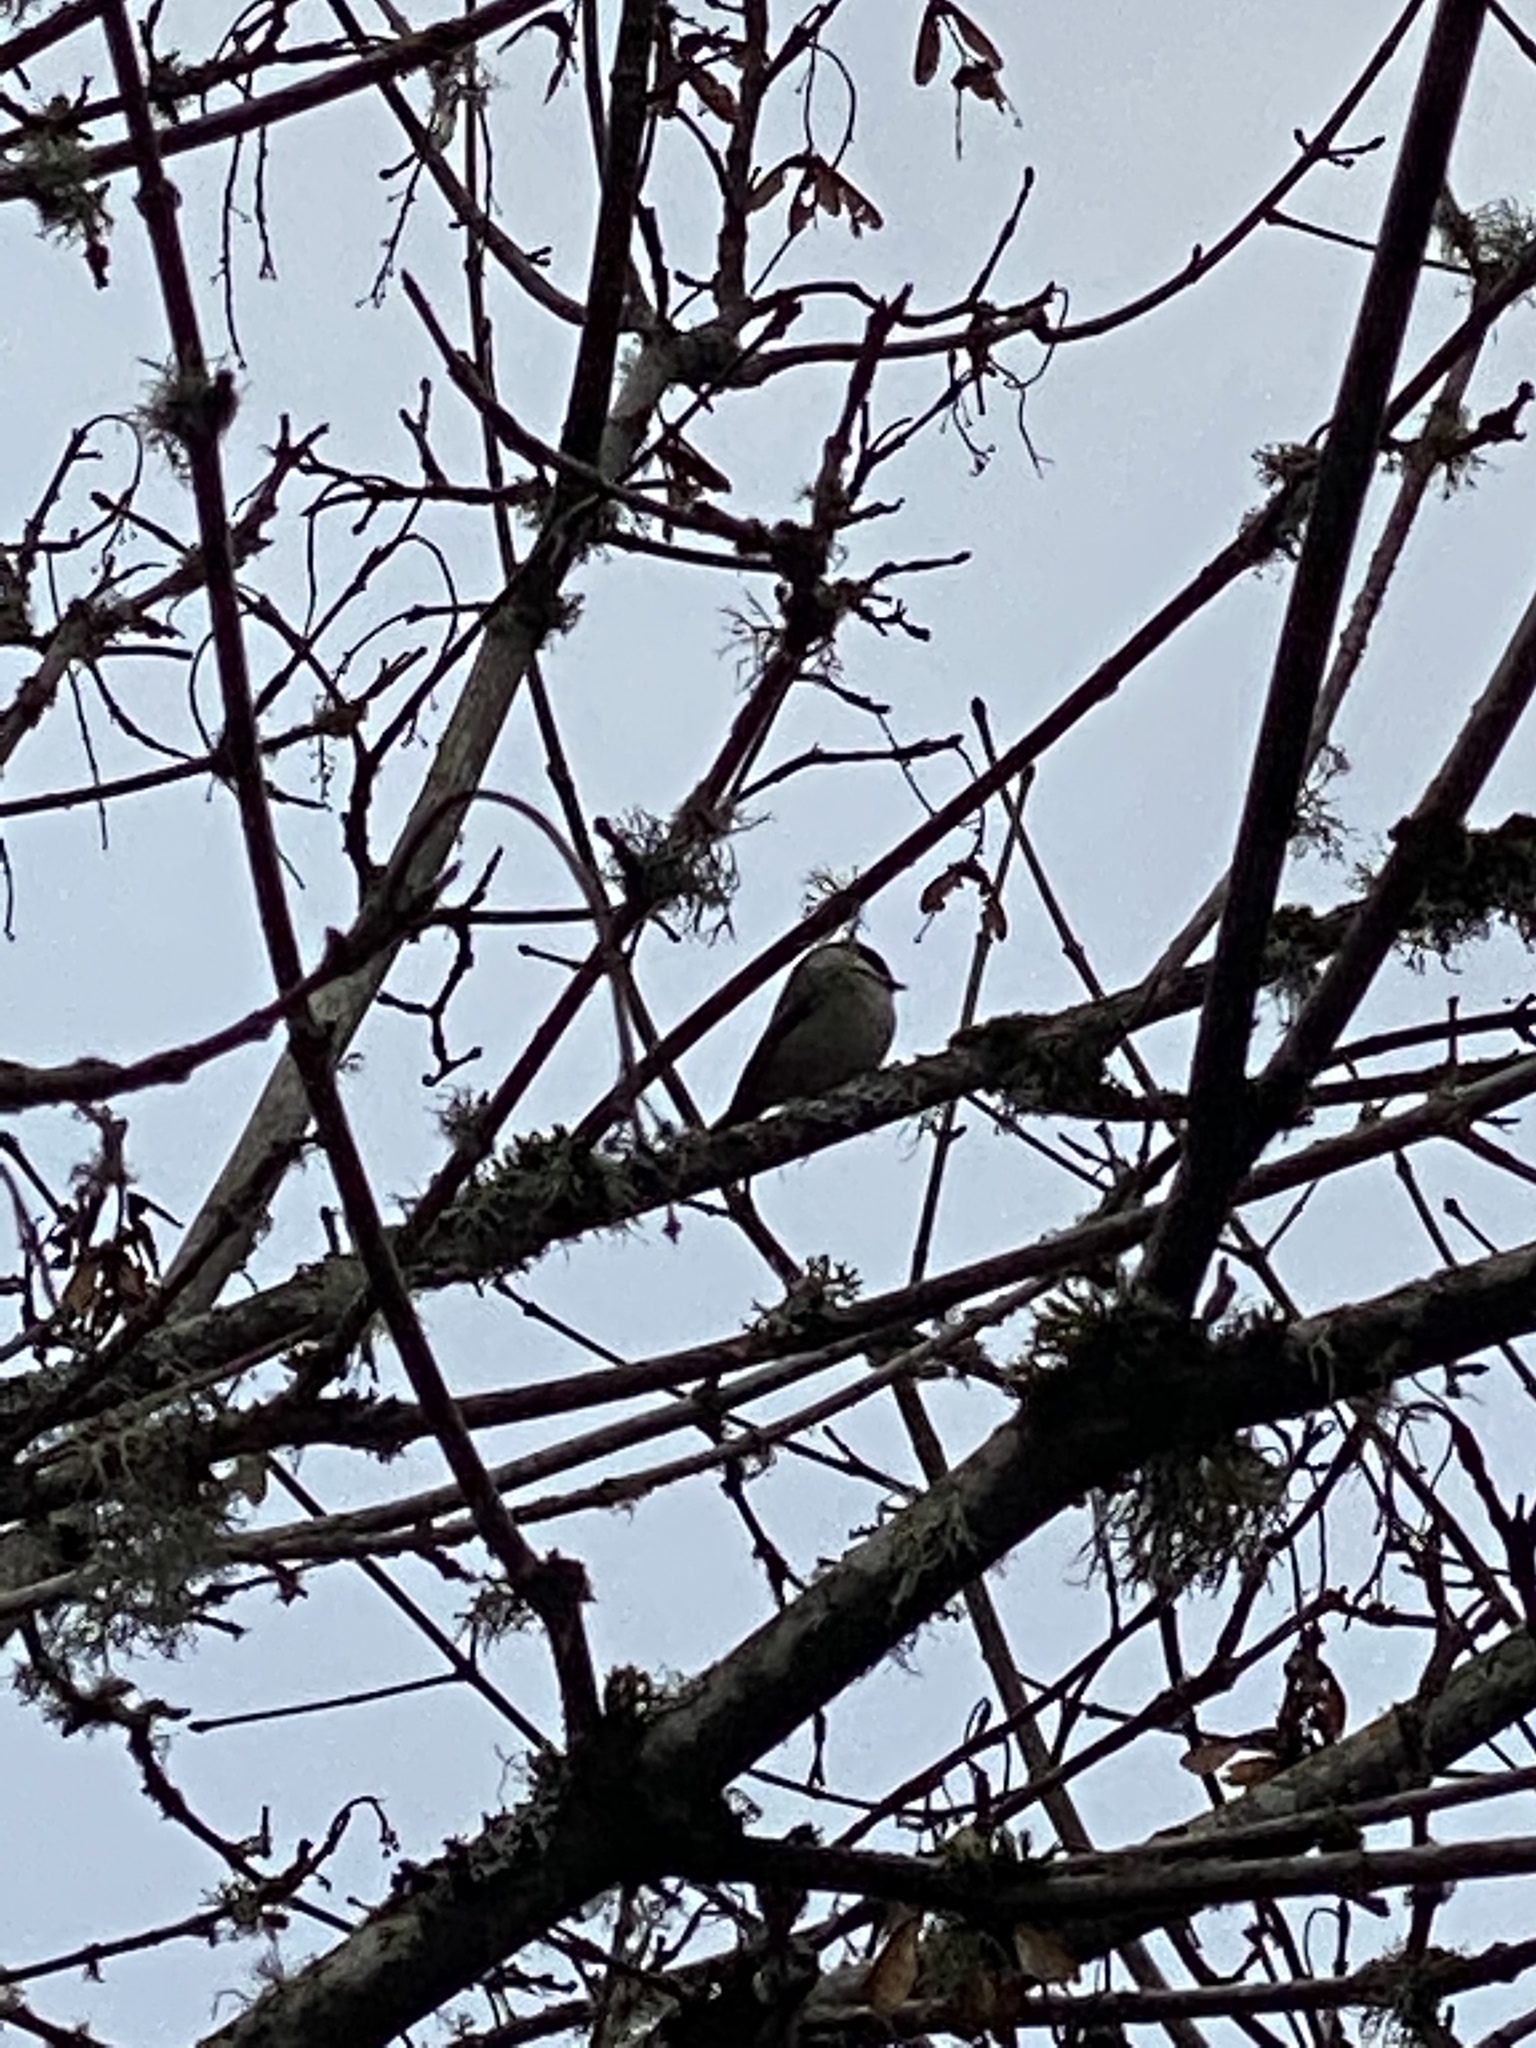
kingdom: Animalia
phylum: Chordata
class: Aves
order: Passeriformes
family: Paridae
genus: Poecile
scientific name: Poecile atricapillus
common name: Black-capped chickadee
